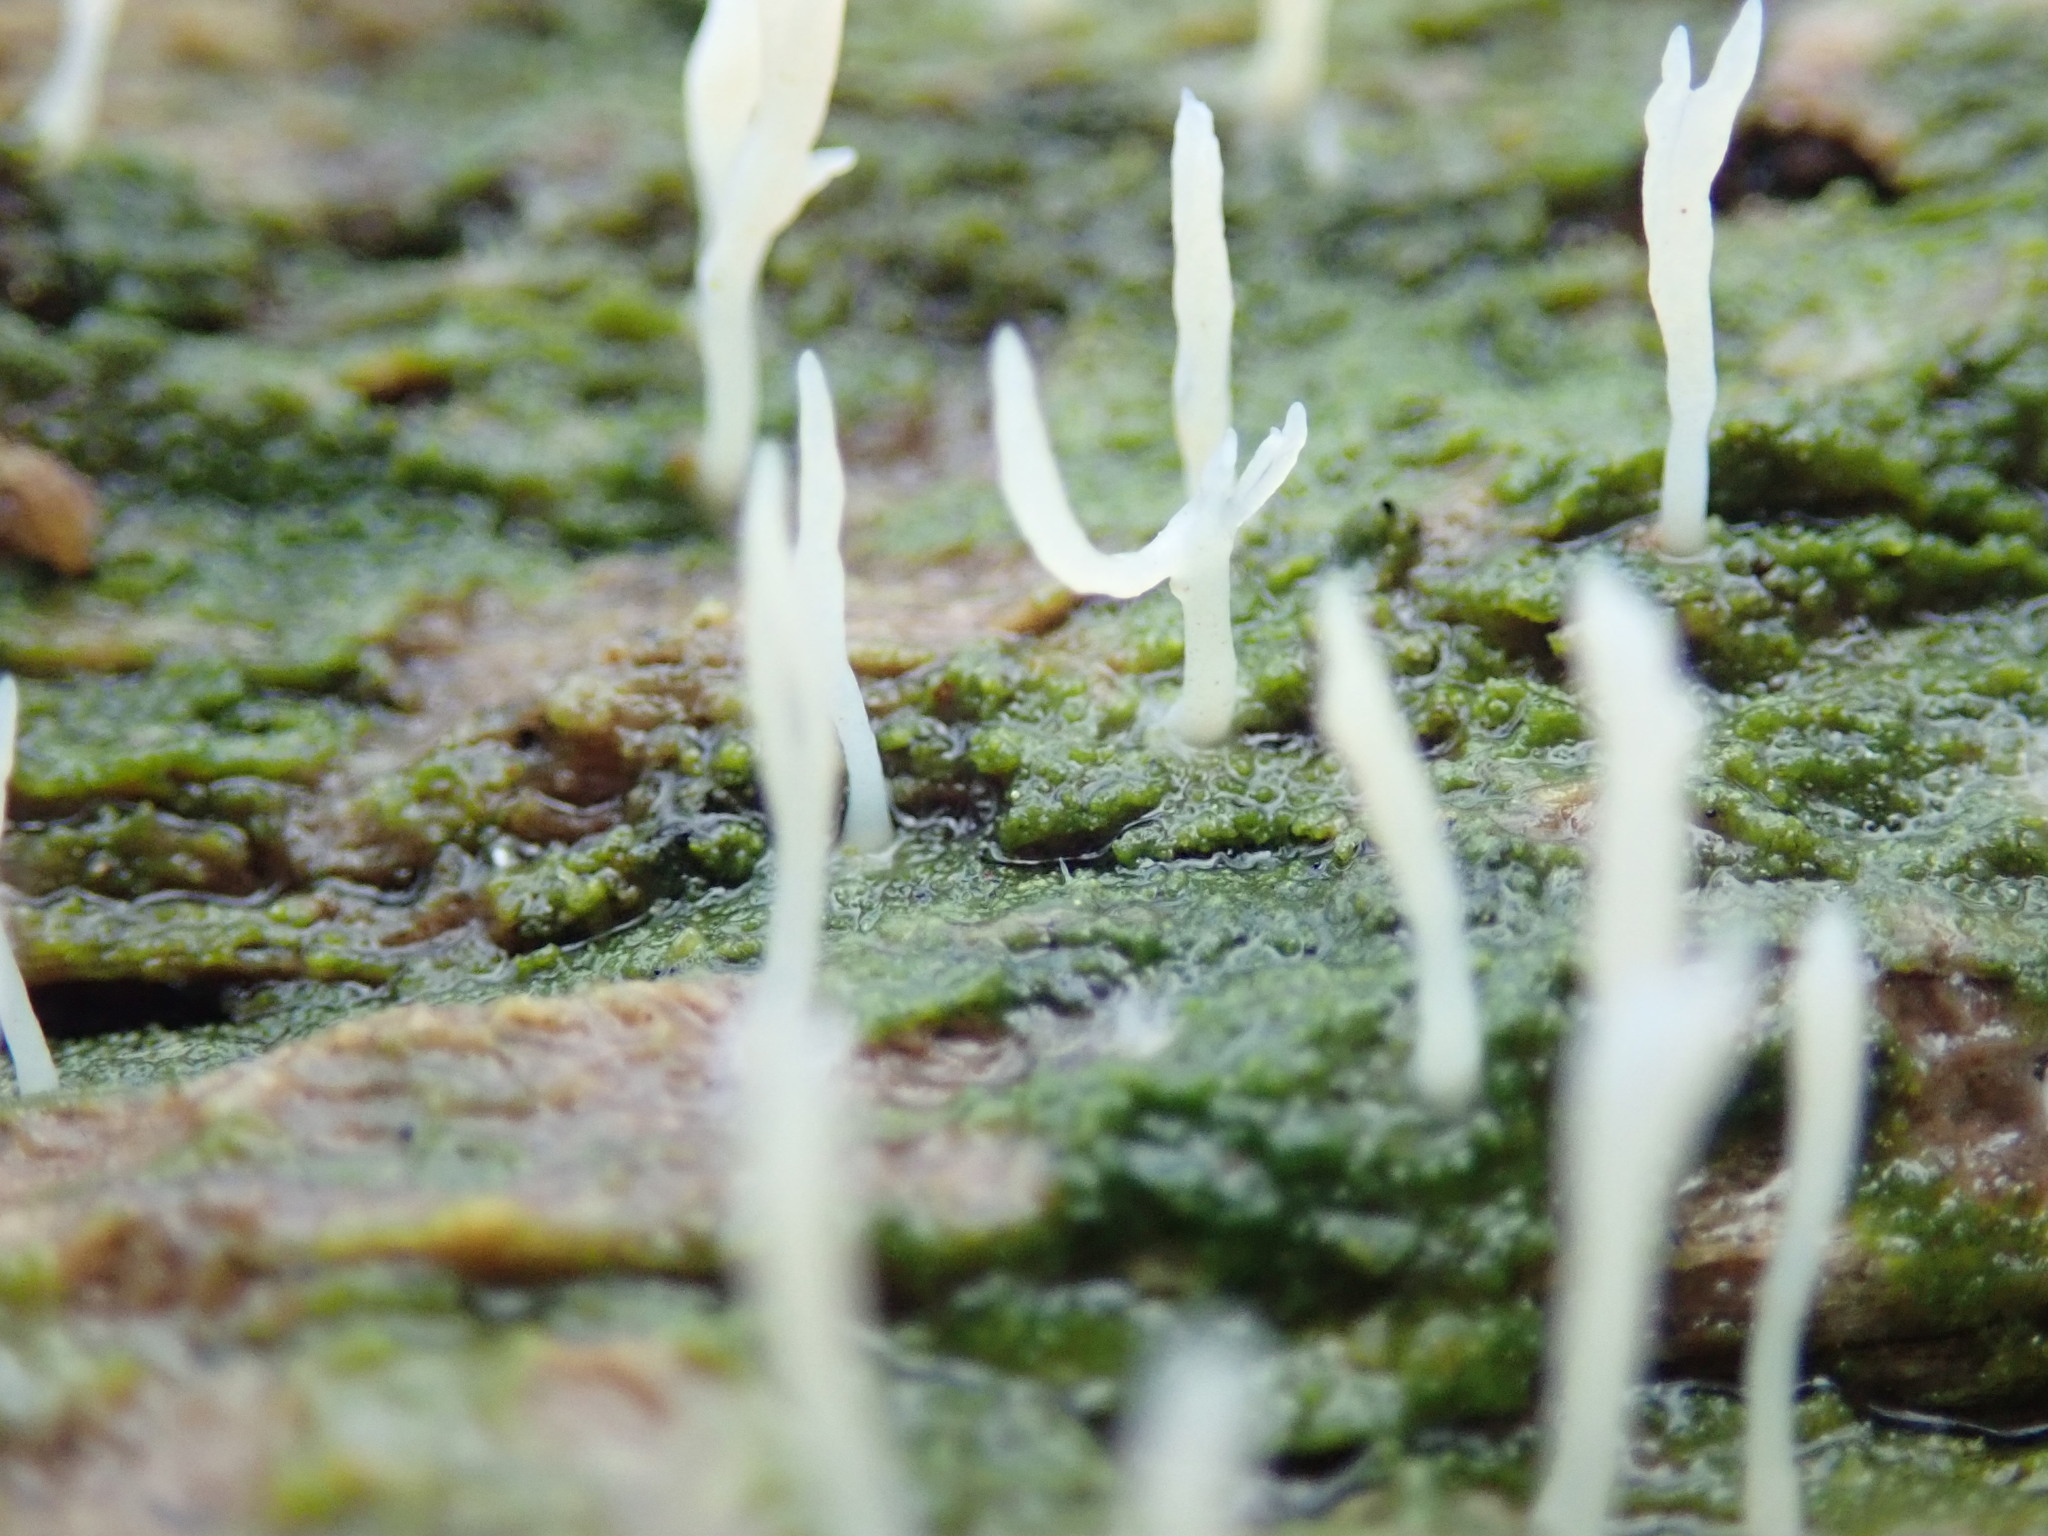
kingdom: Fungi
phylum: Basidiomycota
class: Agaricomycetes
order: Cantharellales
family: Hydnaceae
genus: Multiclavula
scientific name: Multiclavula mucida
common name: White green-algae coral
